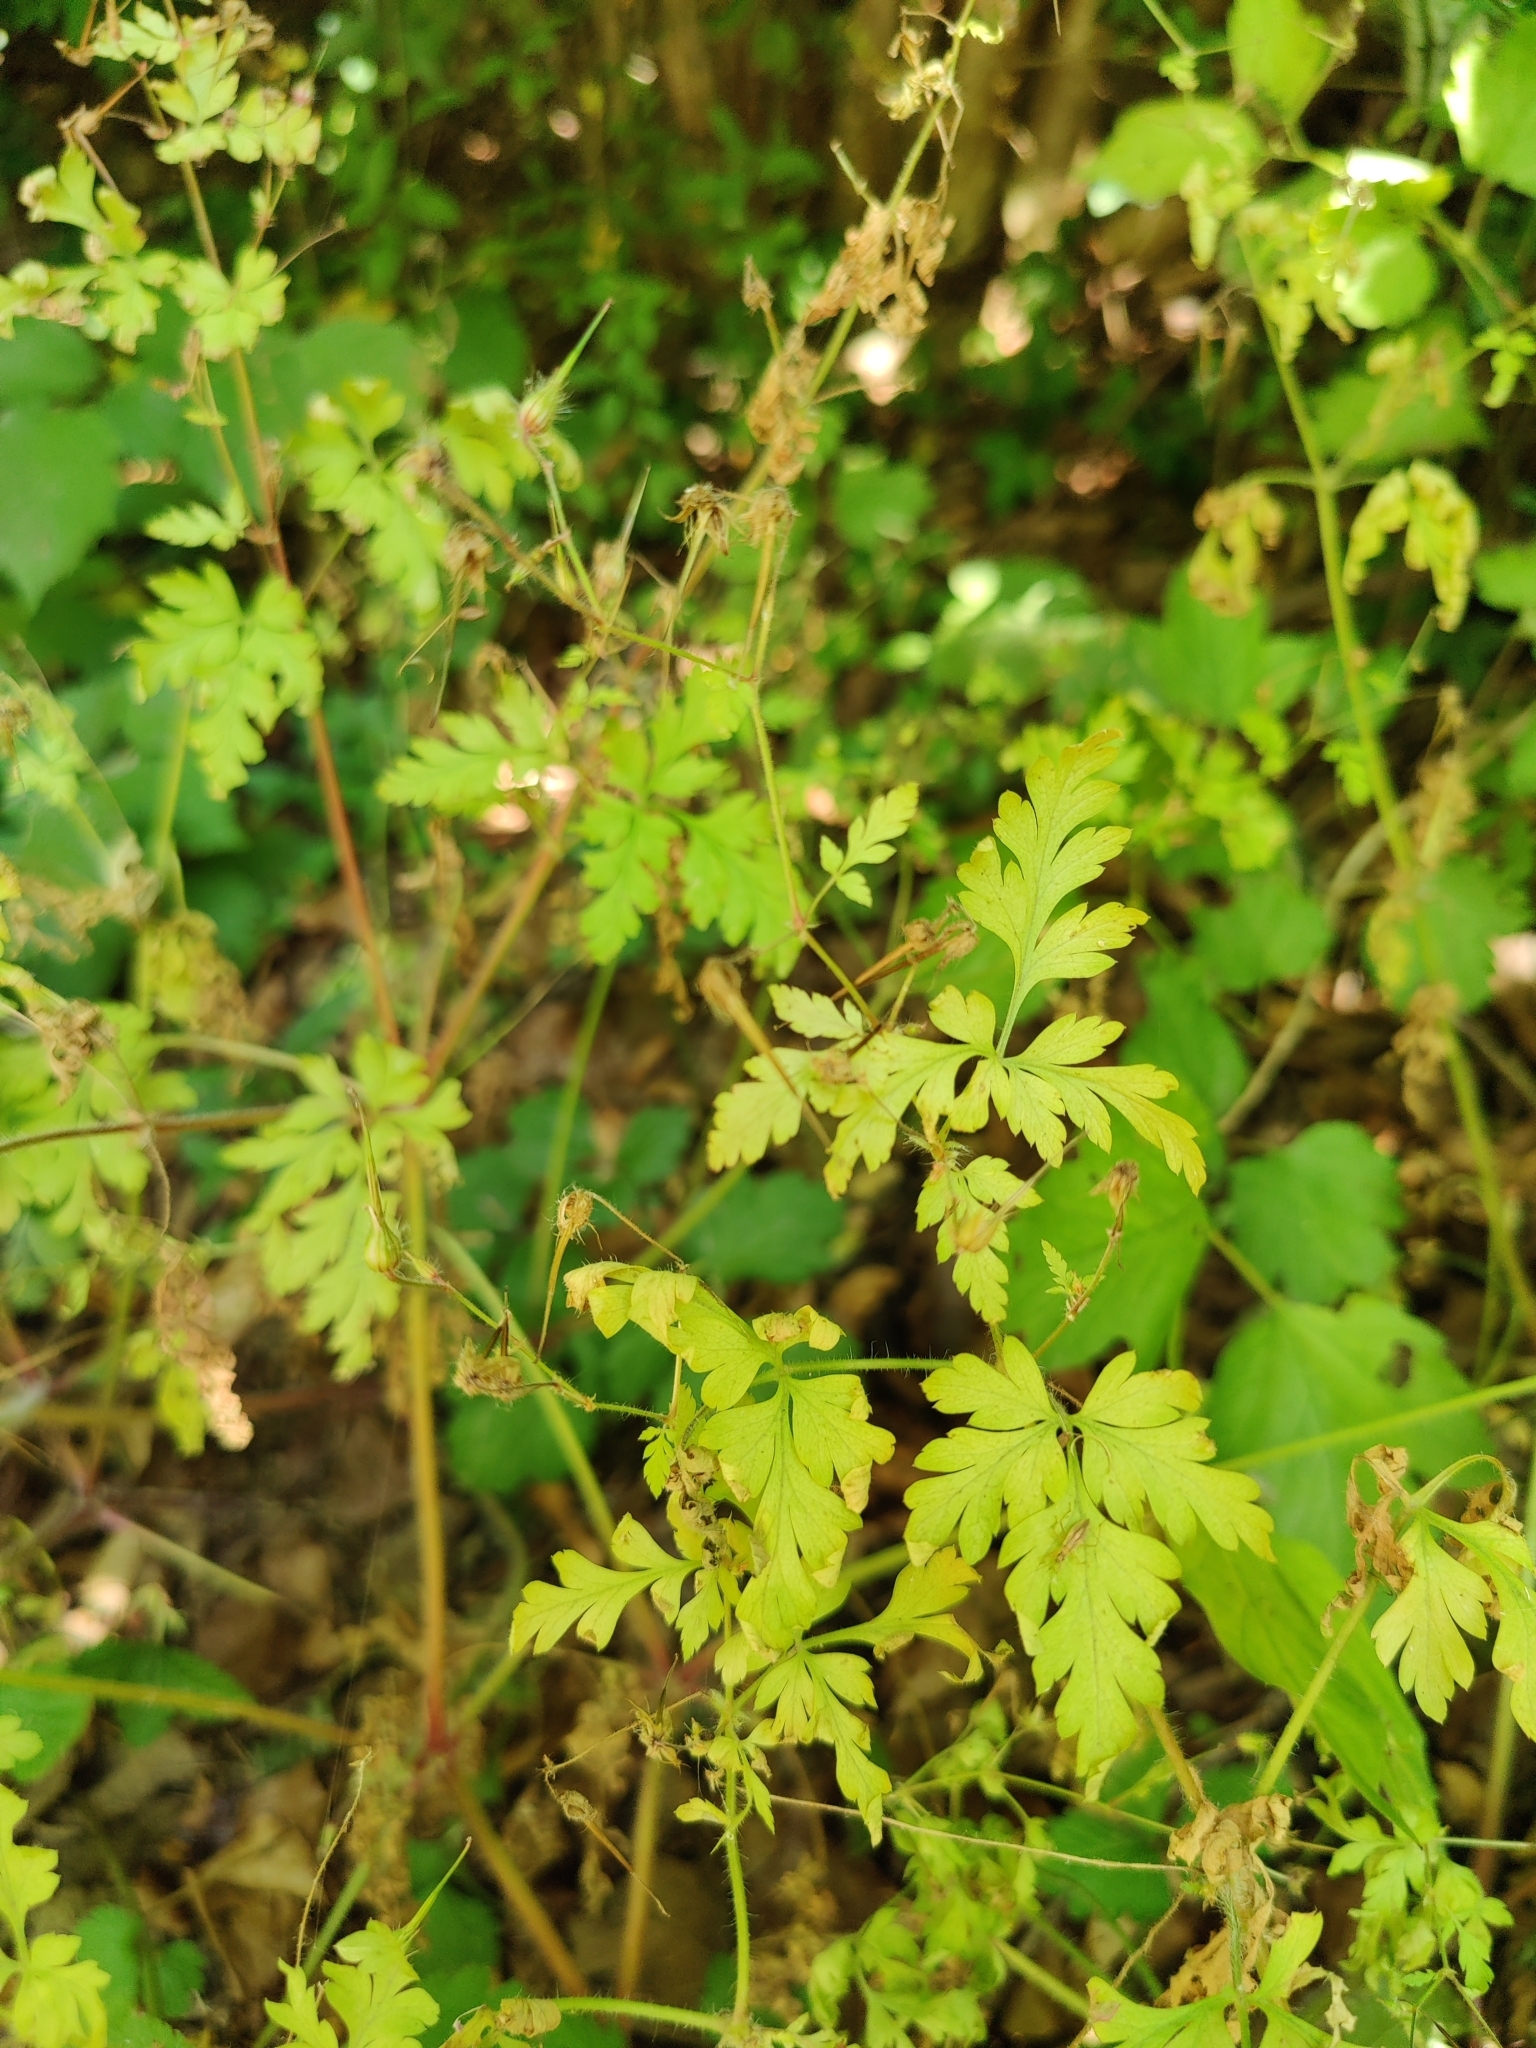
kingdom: Plantae
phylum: Tracheophyta
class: Magnoliopsida
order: Geraniales
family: Geraniaceae
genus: Geranium
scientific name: Geranium robertianum
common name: Herb-robert
